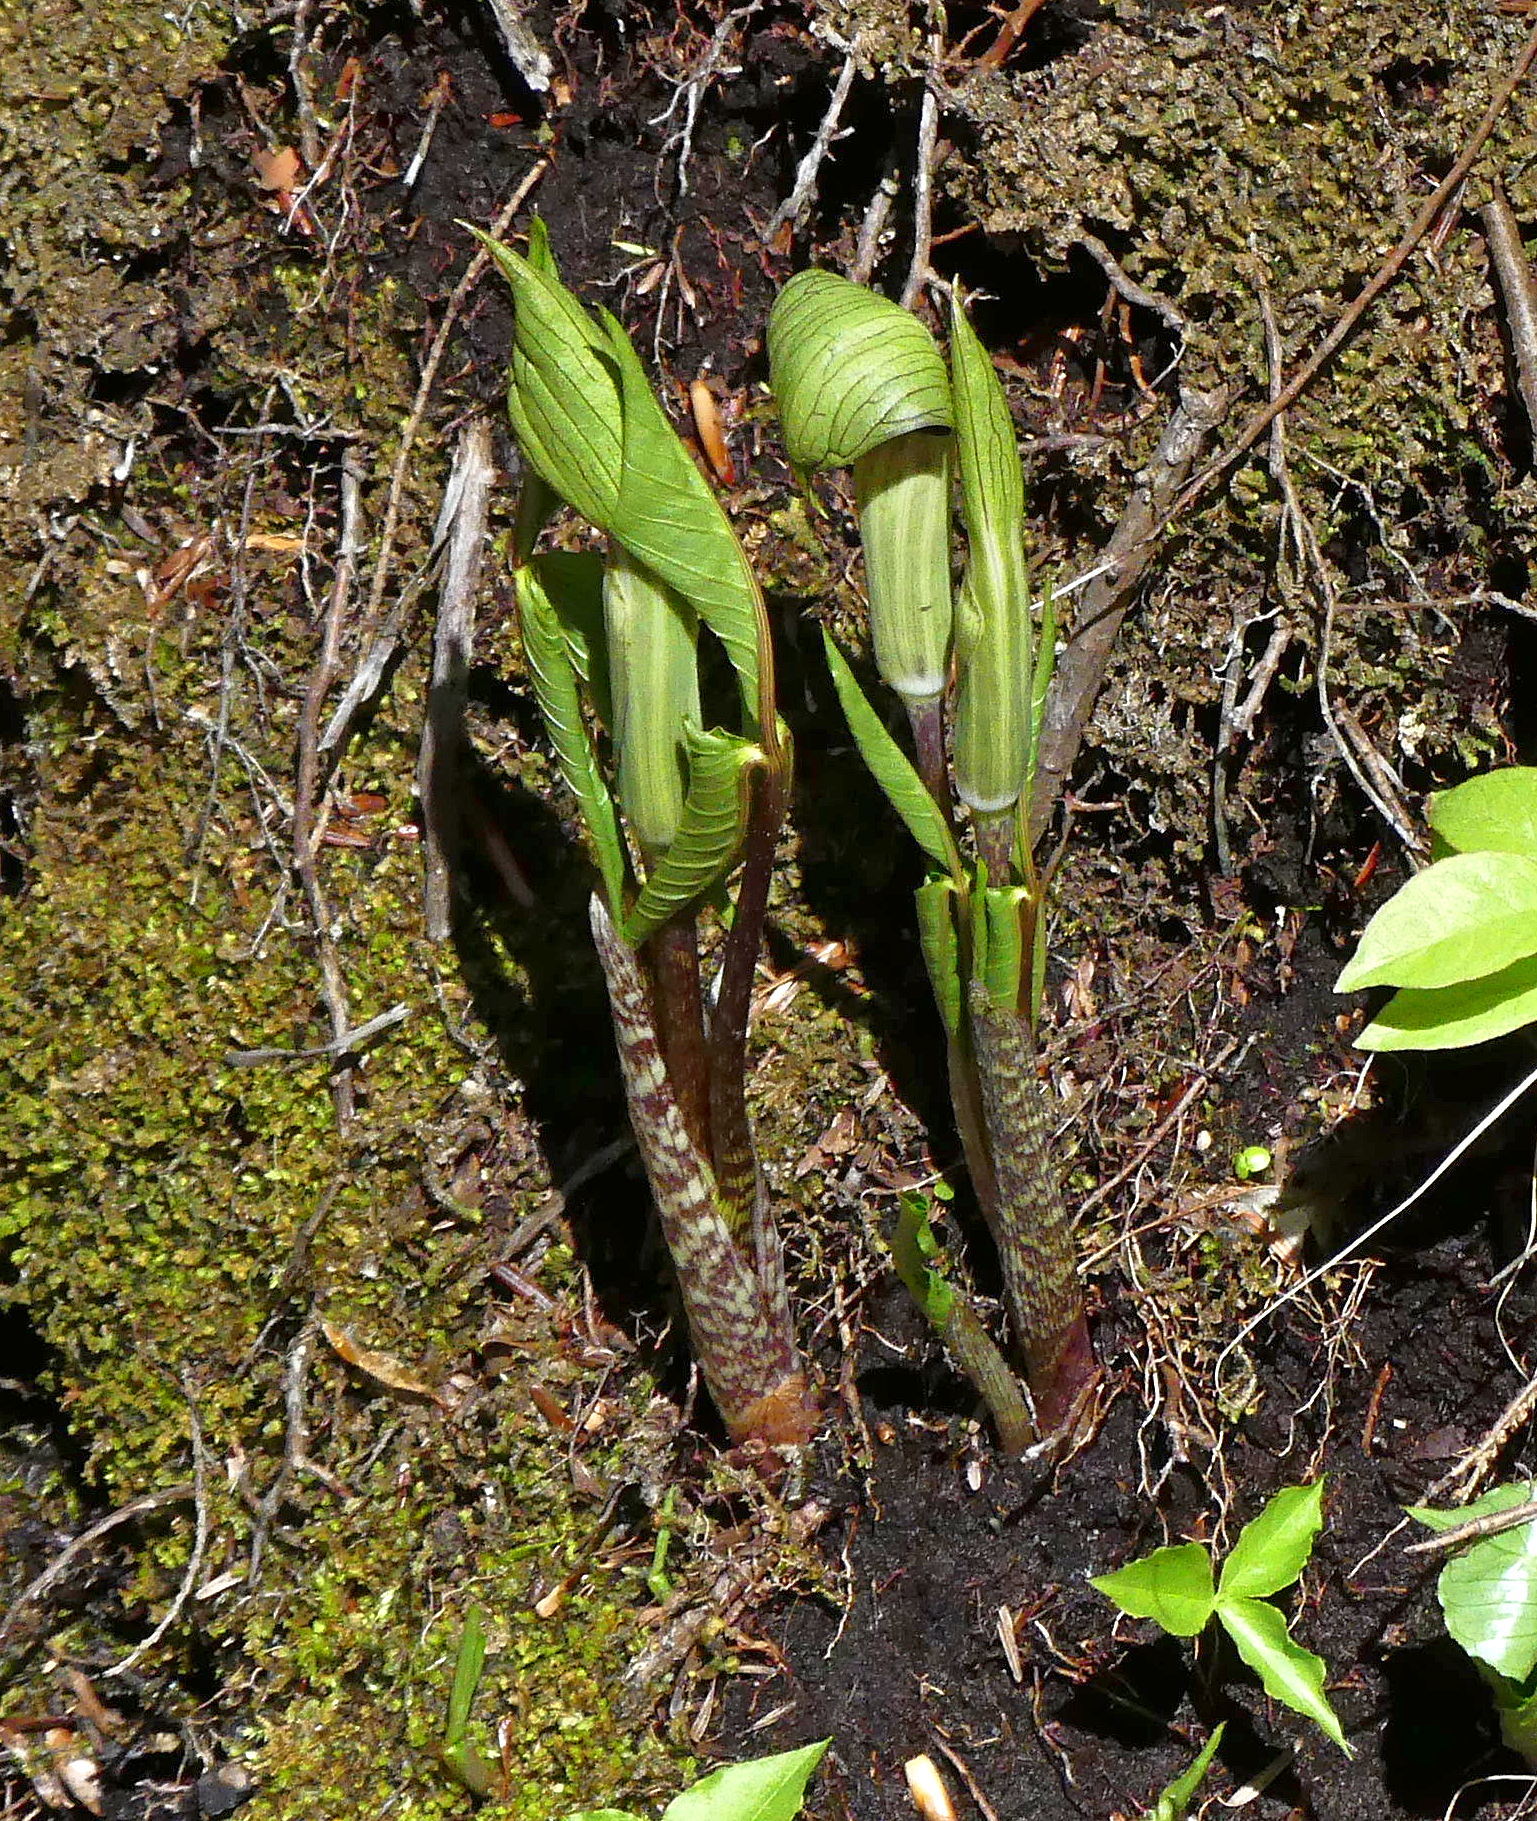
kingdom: Plantae
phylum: Tracheophyta
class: Liliopsida
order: Alismatales
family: Araceae
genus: Arisaema
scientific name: Arisaema triphyllum
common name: Jack-in-the-pulpit
